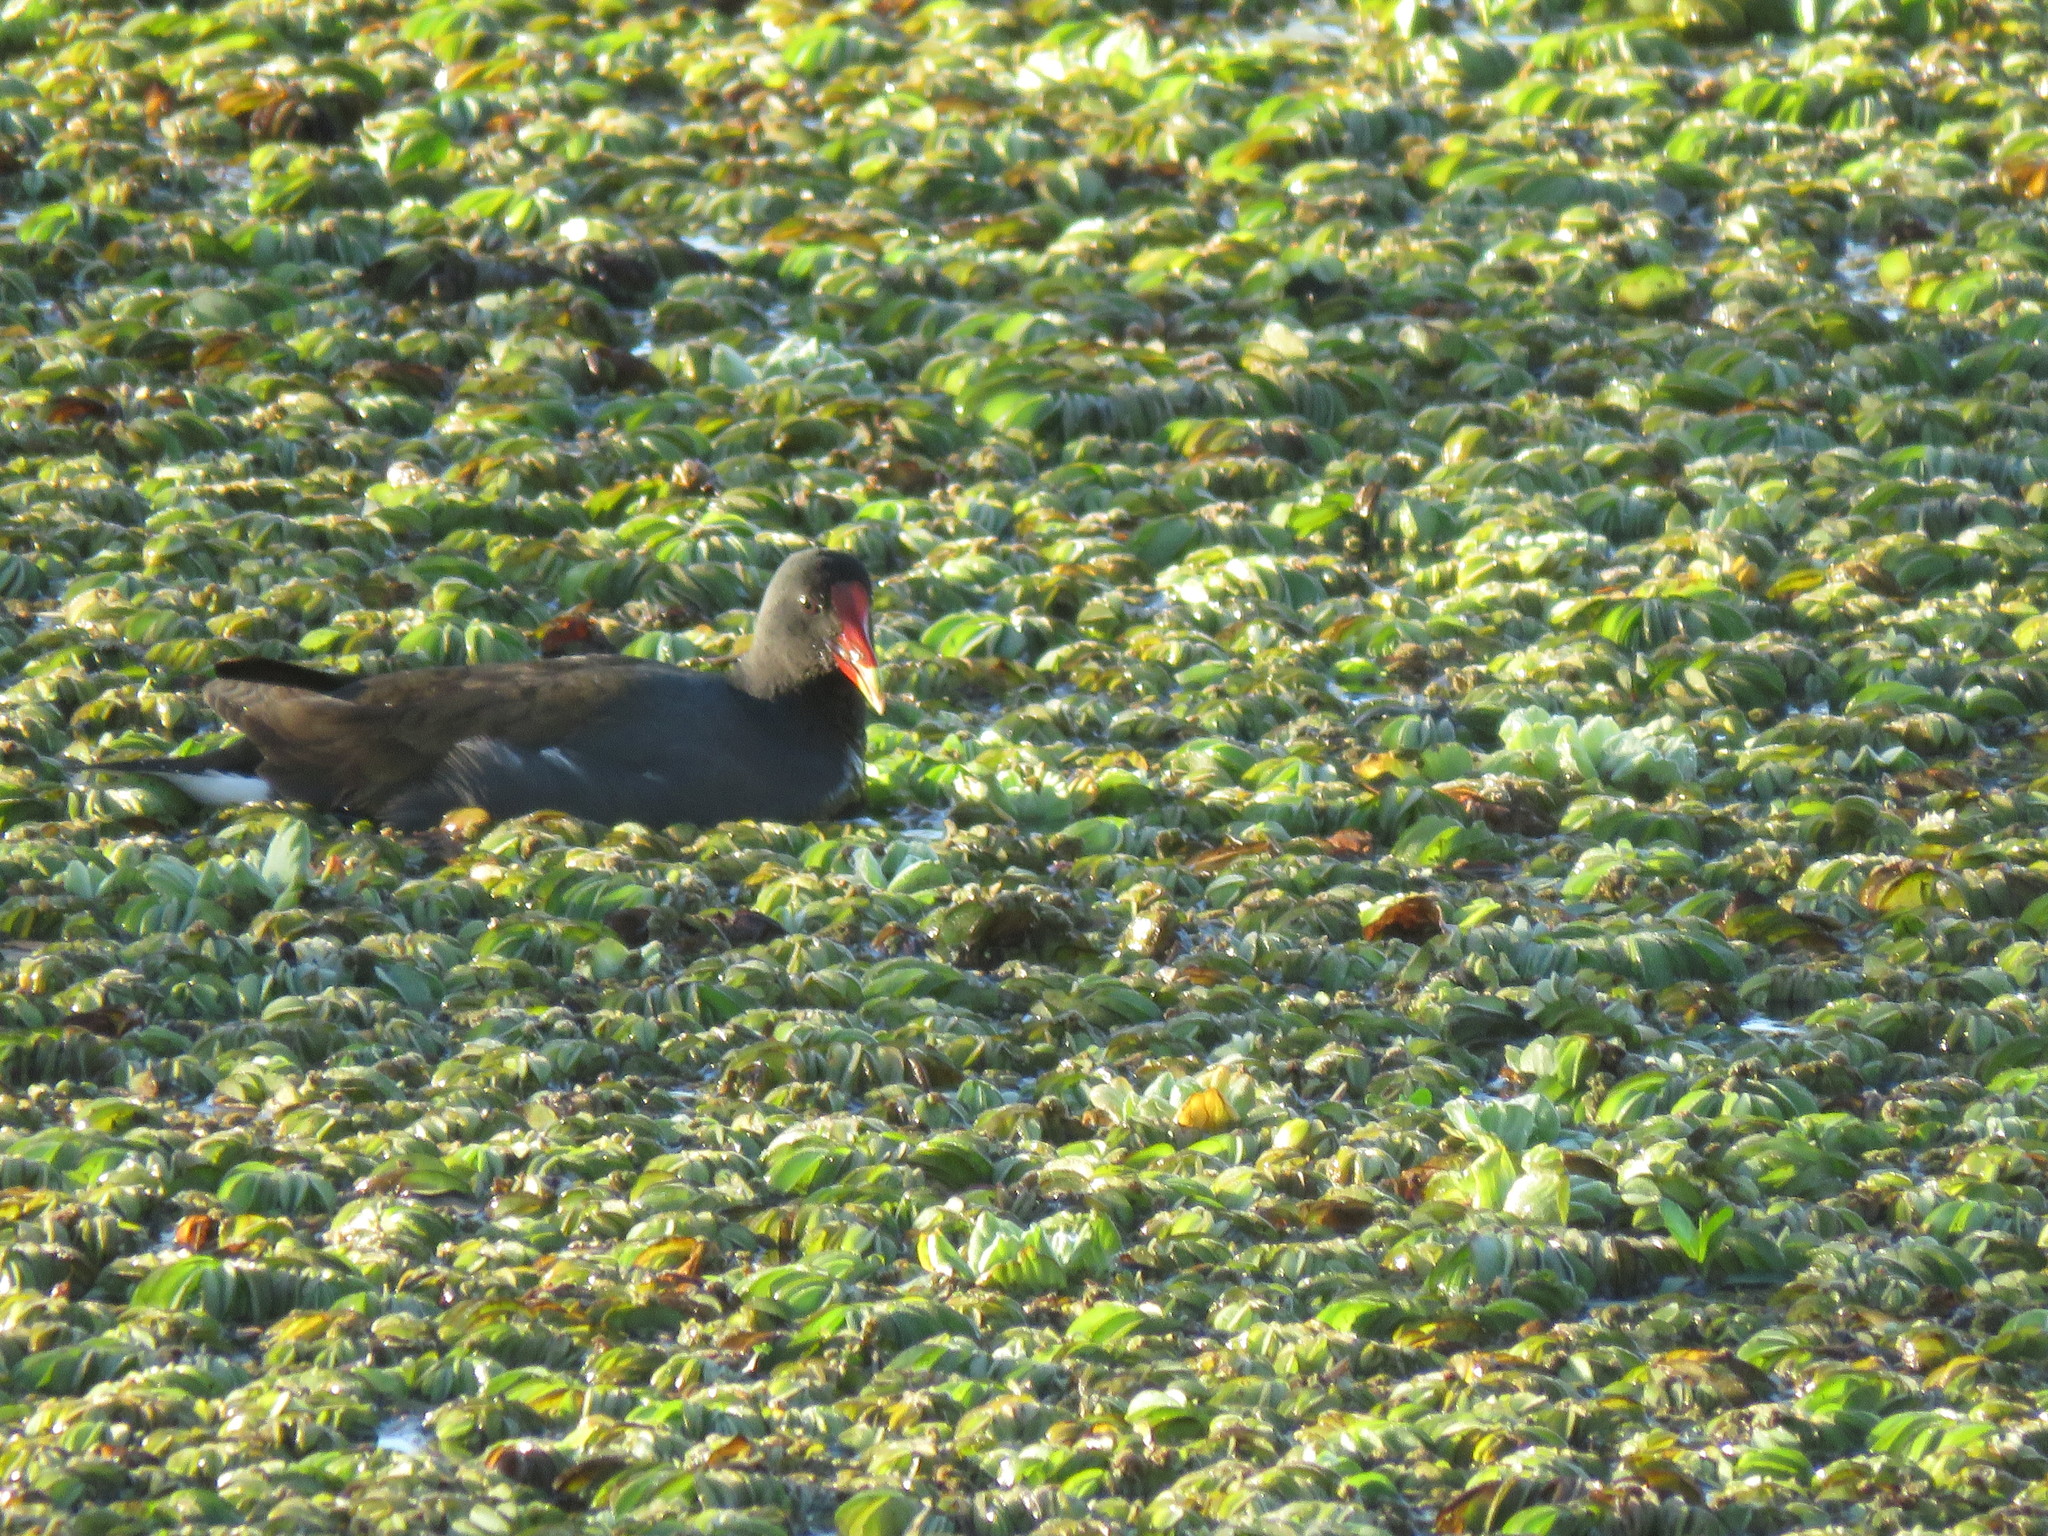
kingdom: Animalia
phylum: Chordata
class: Aves
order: Gruiformes
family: Rallidae
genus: Gallinula
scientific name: Gallinula chloropus
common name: Common moorhen
